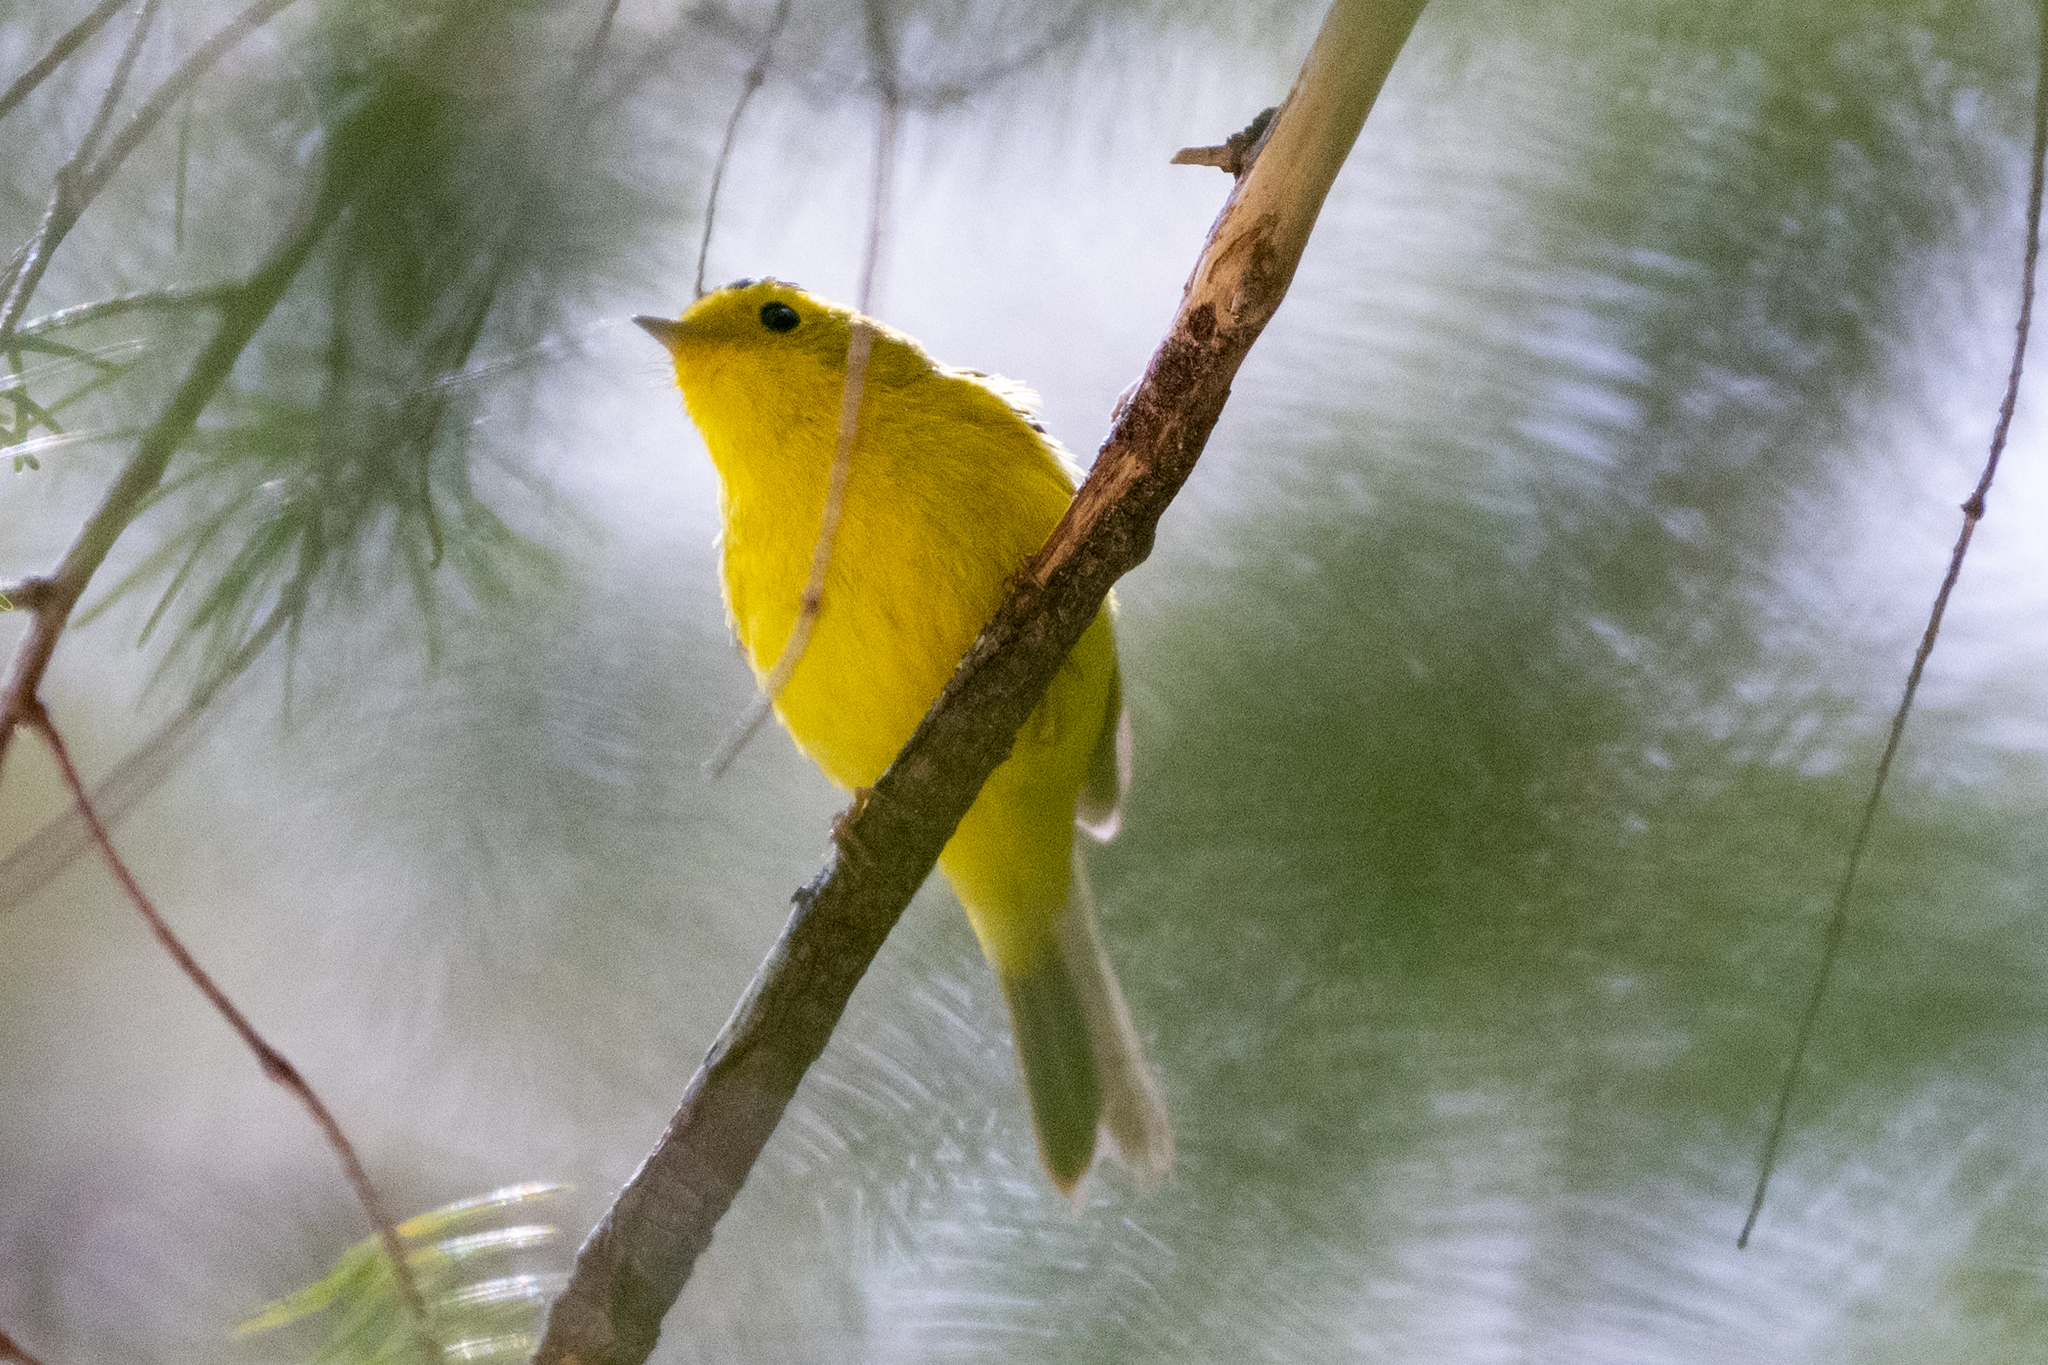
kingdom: Animalia
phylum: Chordata
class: Aves
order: Passeriformes
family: Parulidae
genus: Cardellina
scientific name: Cardellina pusilla
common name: Wilson's warbler
